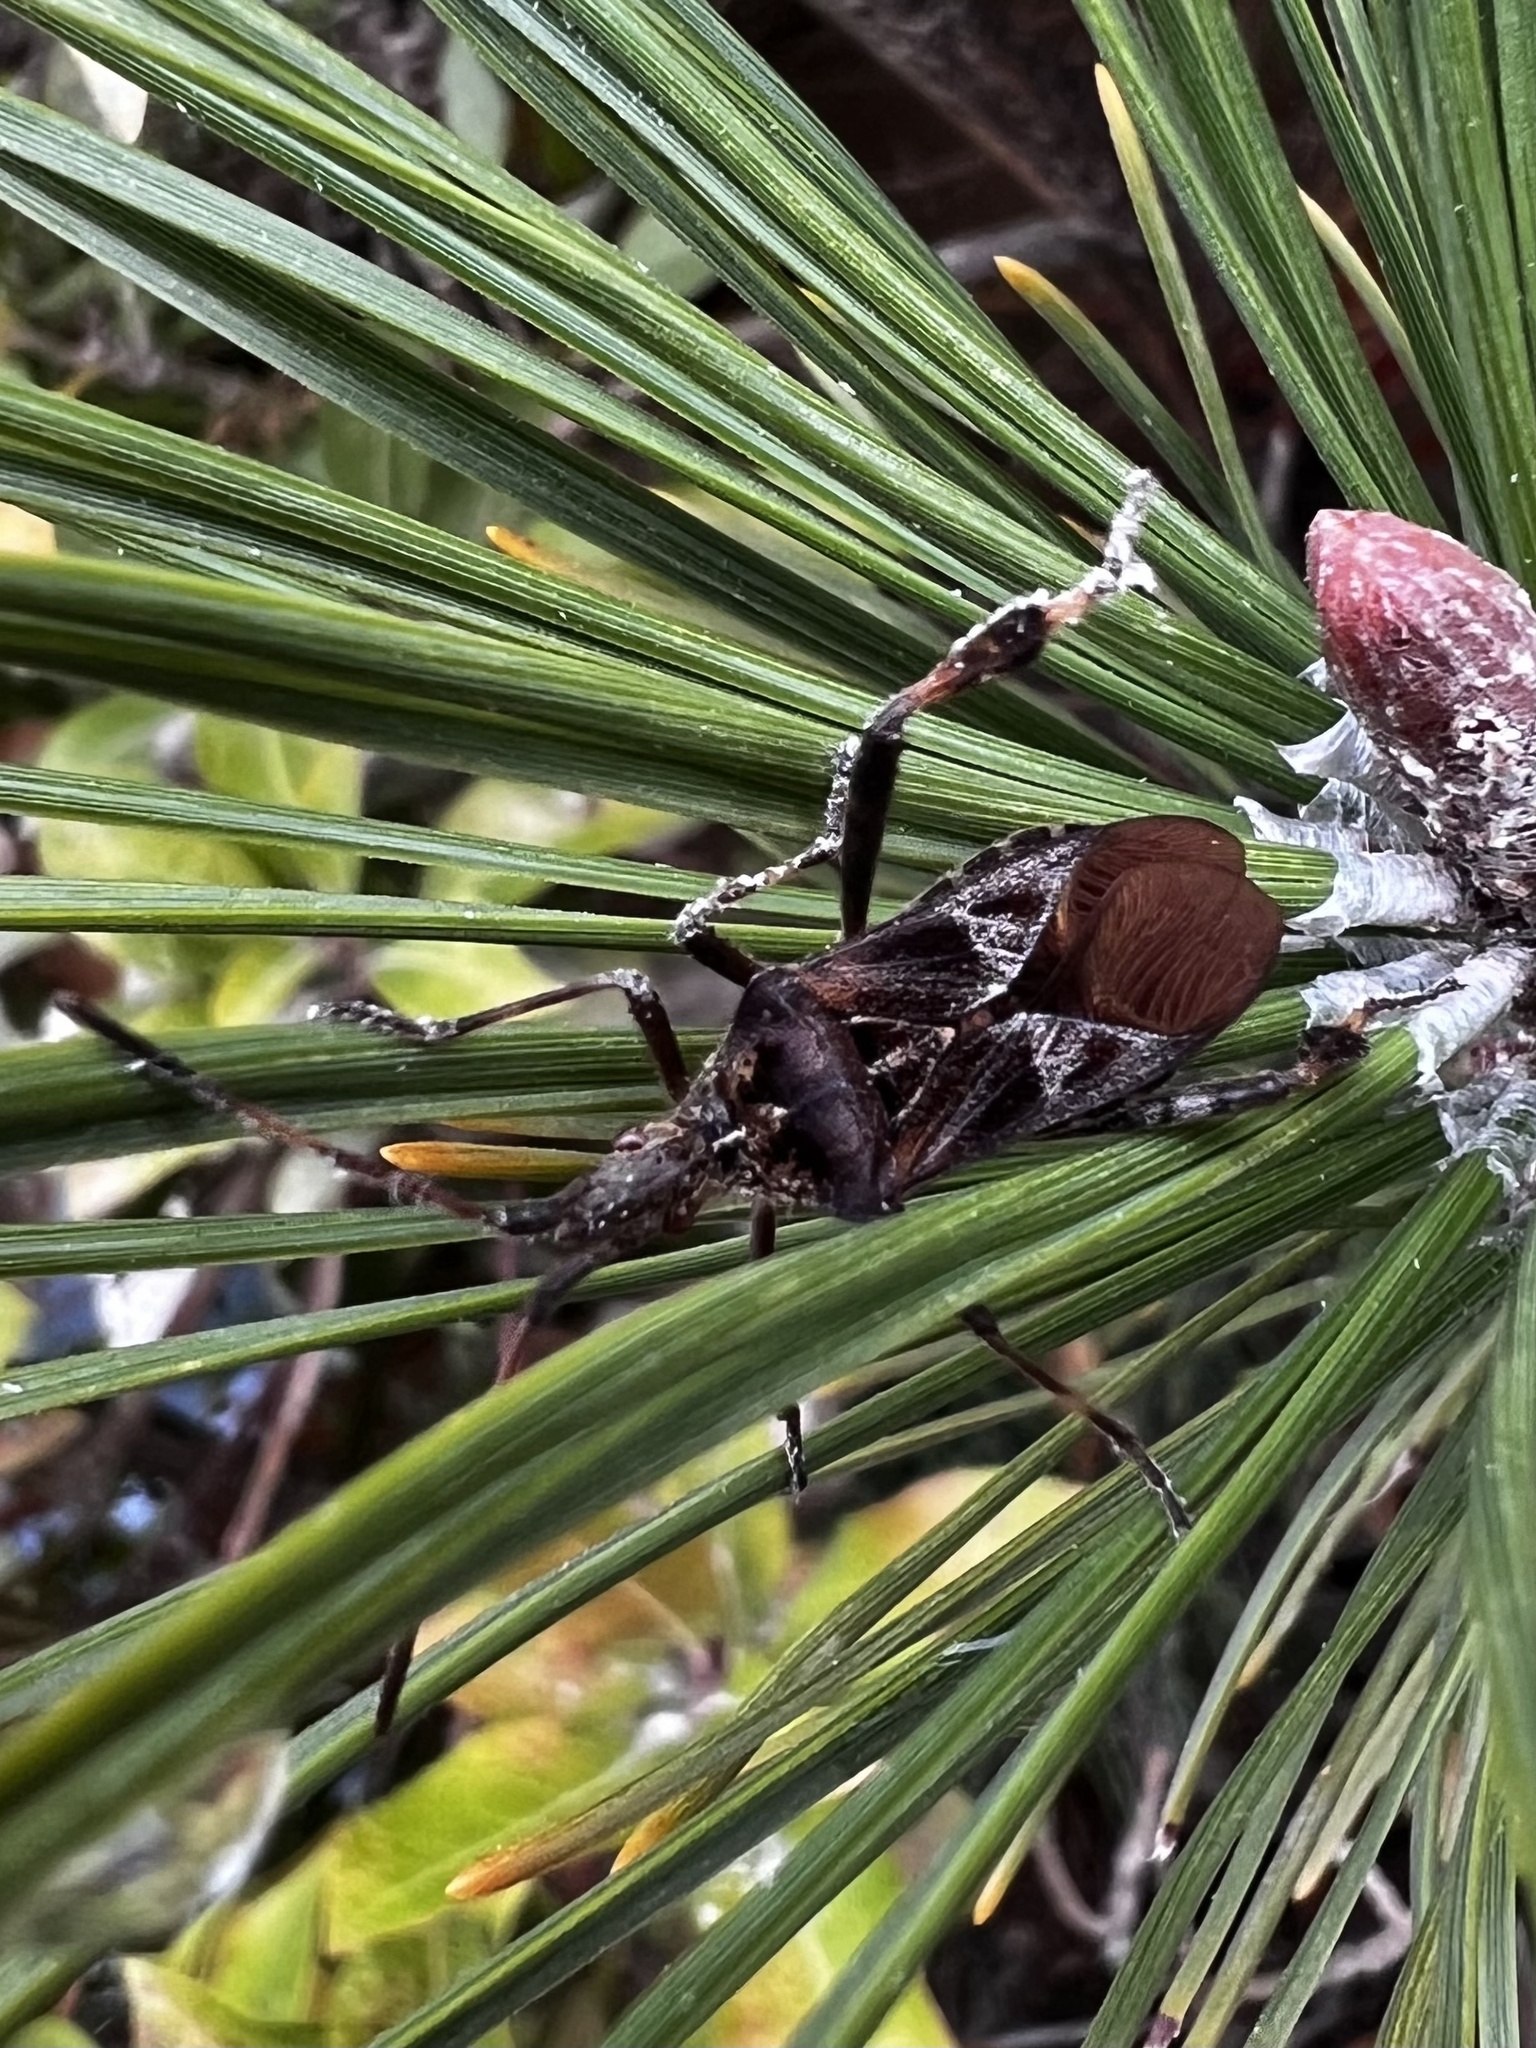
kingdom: Animalia
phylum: Arthropoda
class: Insecta
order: Hemiptera
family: Coreidae
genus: Leptoglossus
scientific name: Leptoglossus occidentalis
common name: Western conifer-seed bug
